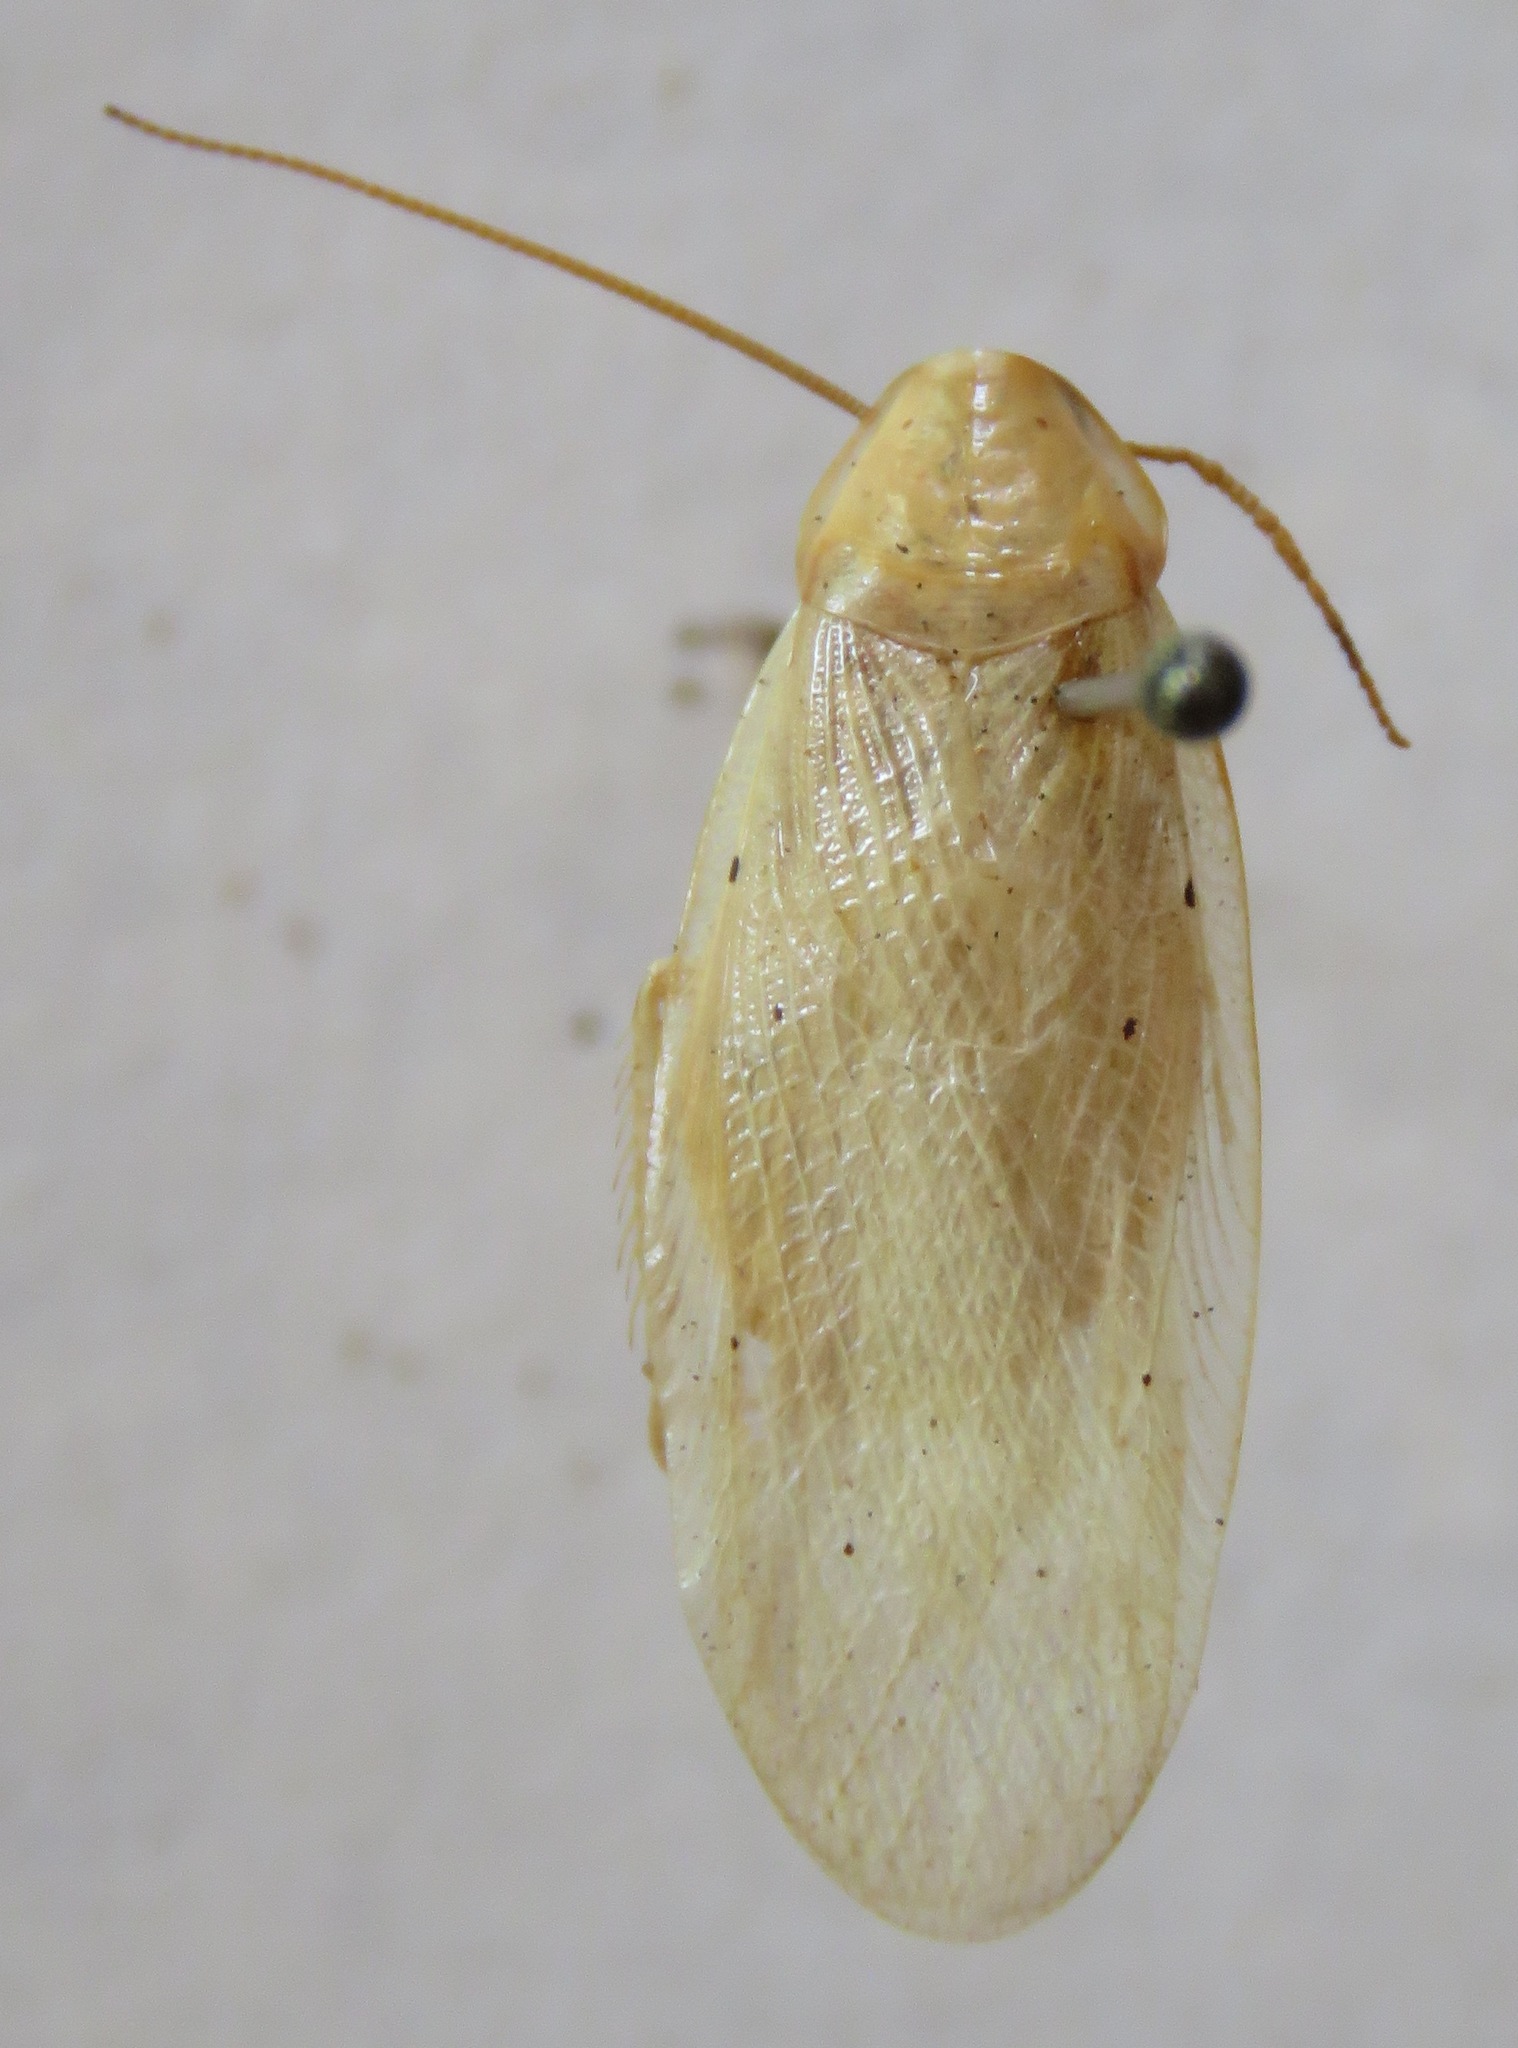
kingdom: Animalia
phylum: Arthropoda
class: Insecta
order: Blattodea
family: Blaberidae
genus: Panchlora
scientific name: Panchlora fraterna
